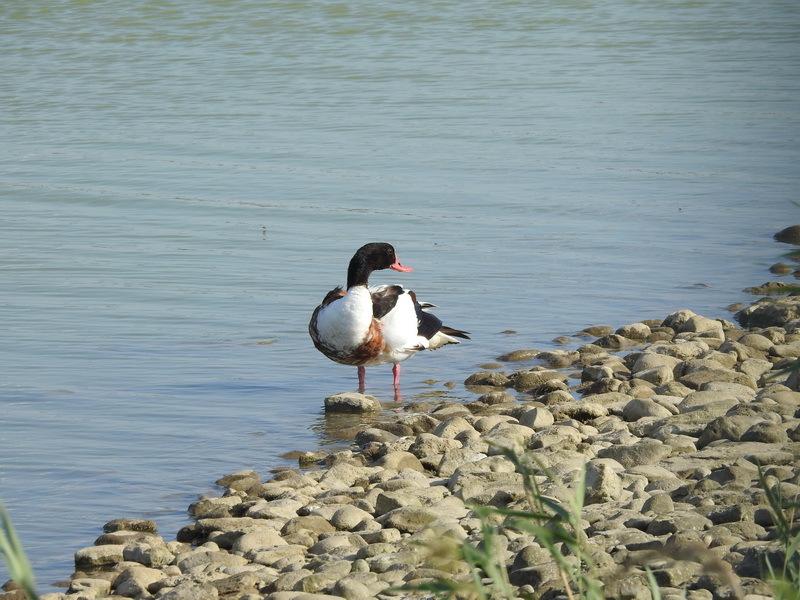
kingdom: Animalia
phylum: Chordata
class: Aves
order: Anseriformes
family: Anatidae
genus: Tadorna
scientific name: Tadorna tadorna
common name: Common shelduck
